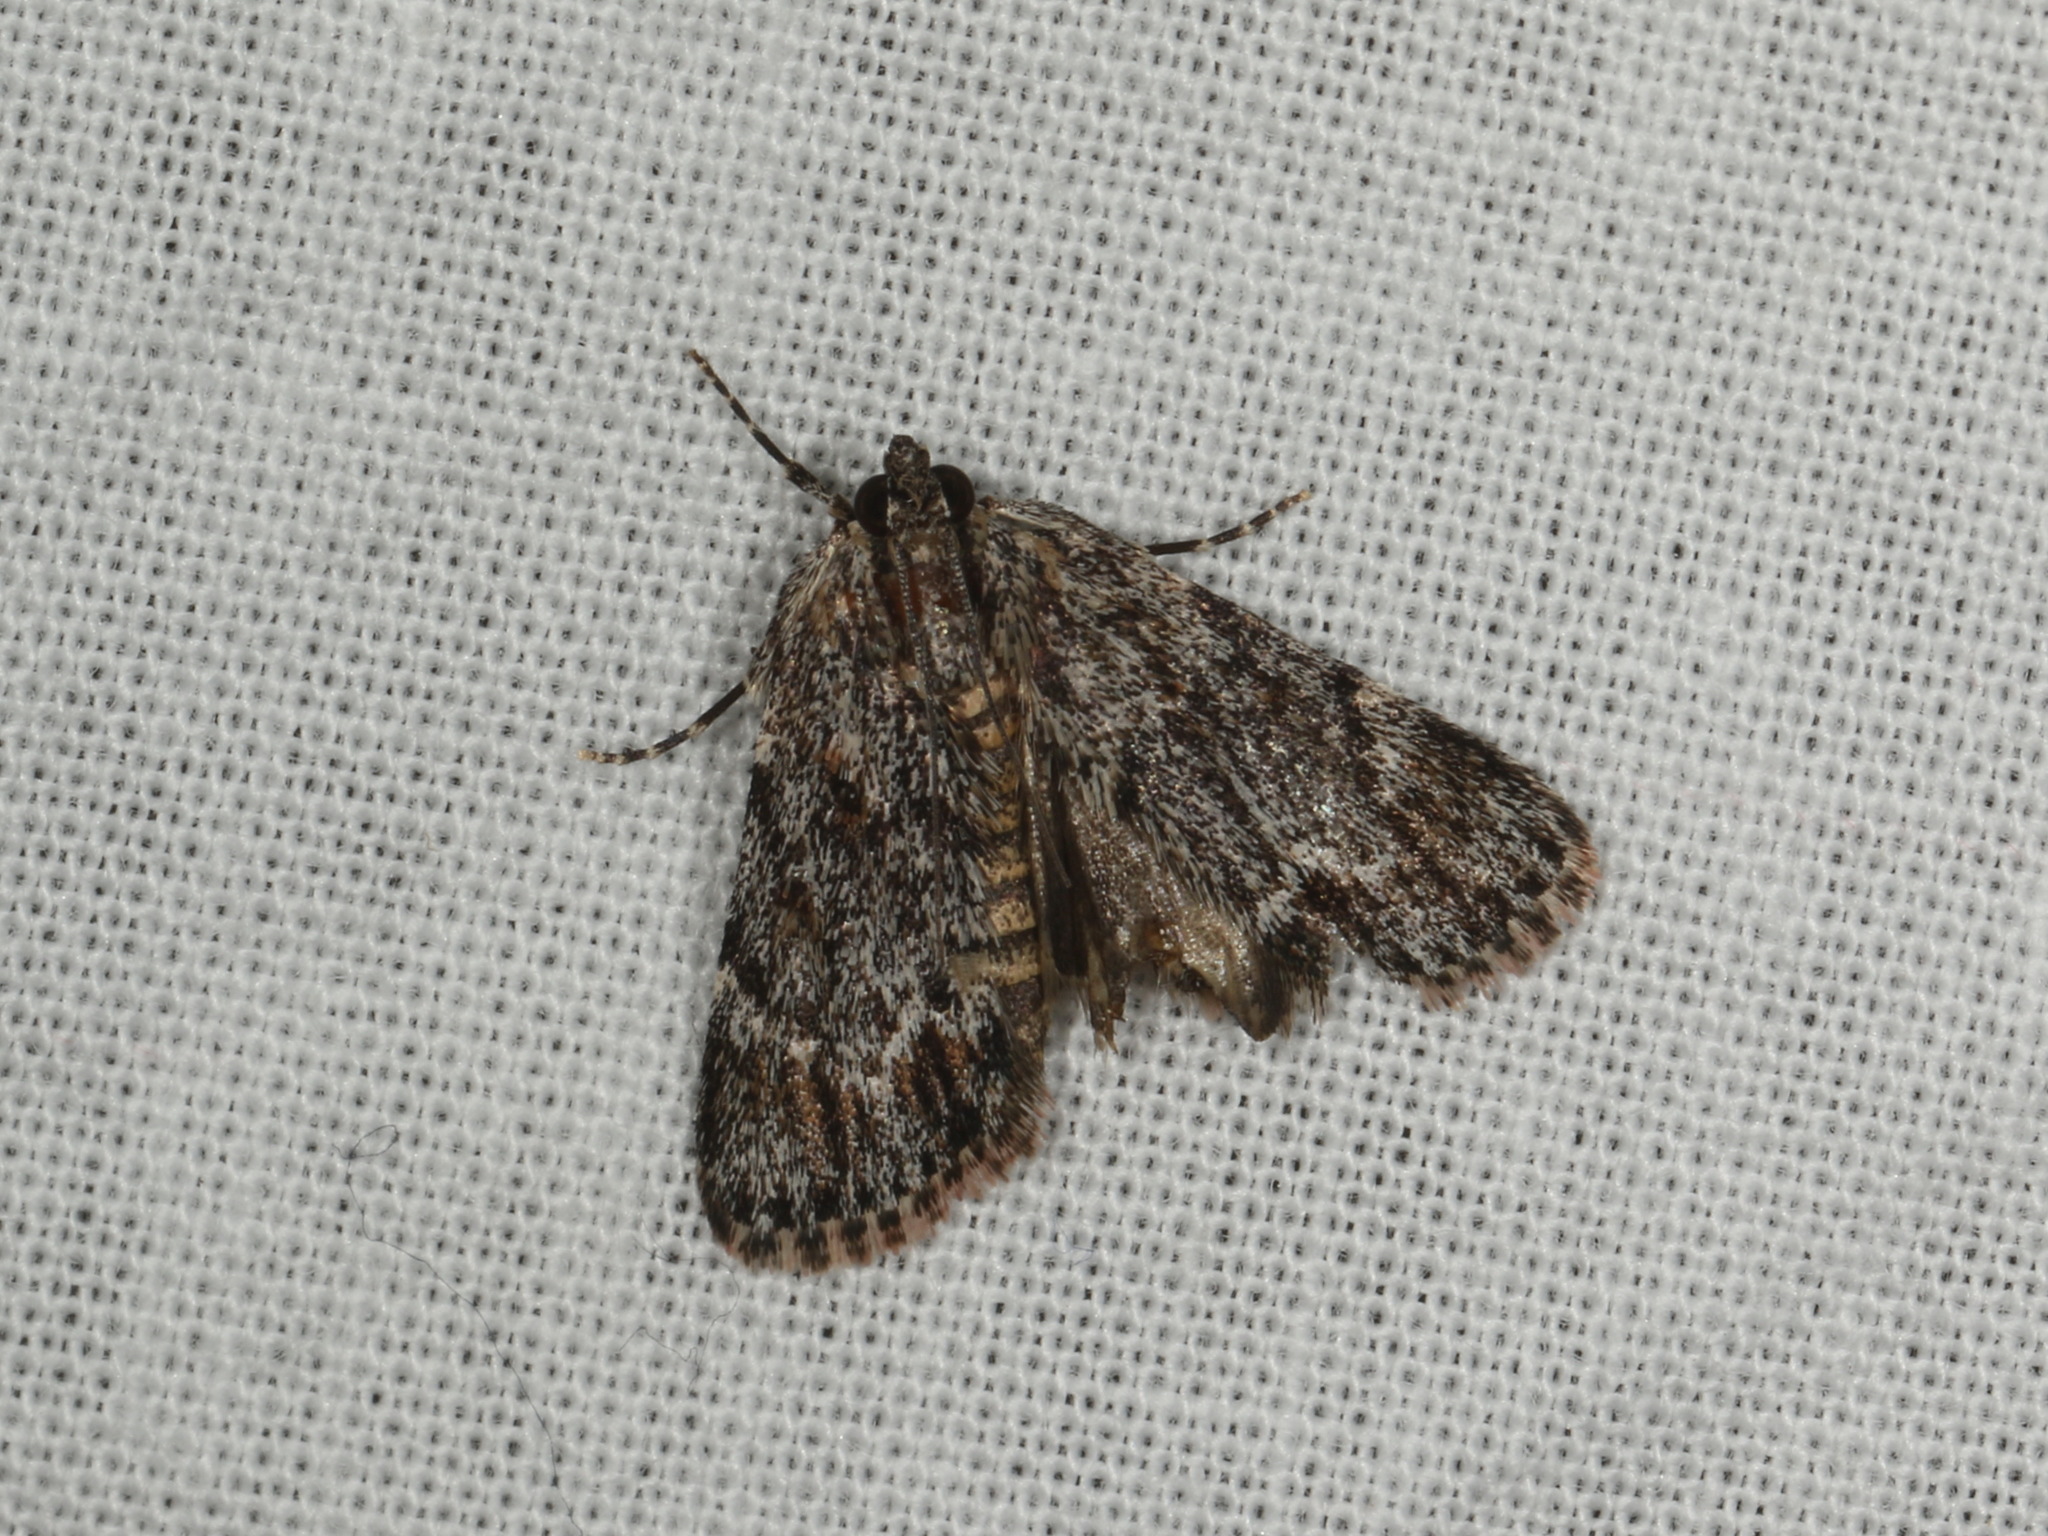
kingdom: Animalia
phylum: Arthropoda
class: Insecta
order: Lepidoptera
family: Pyralidae
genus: Spectrotrota
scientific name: Spectrotrota fimbrialis
